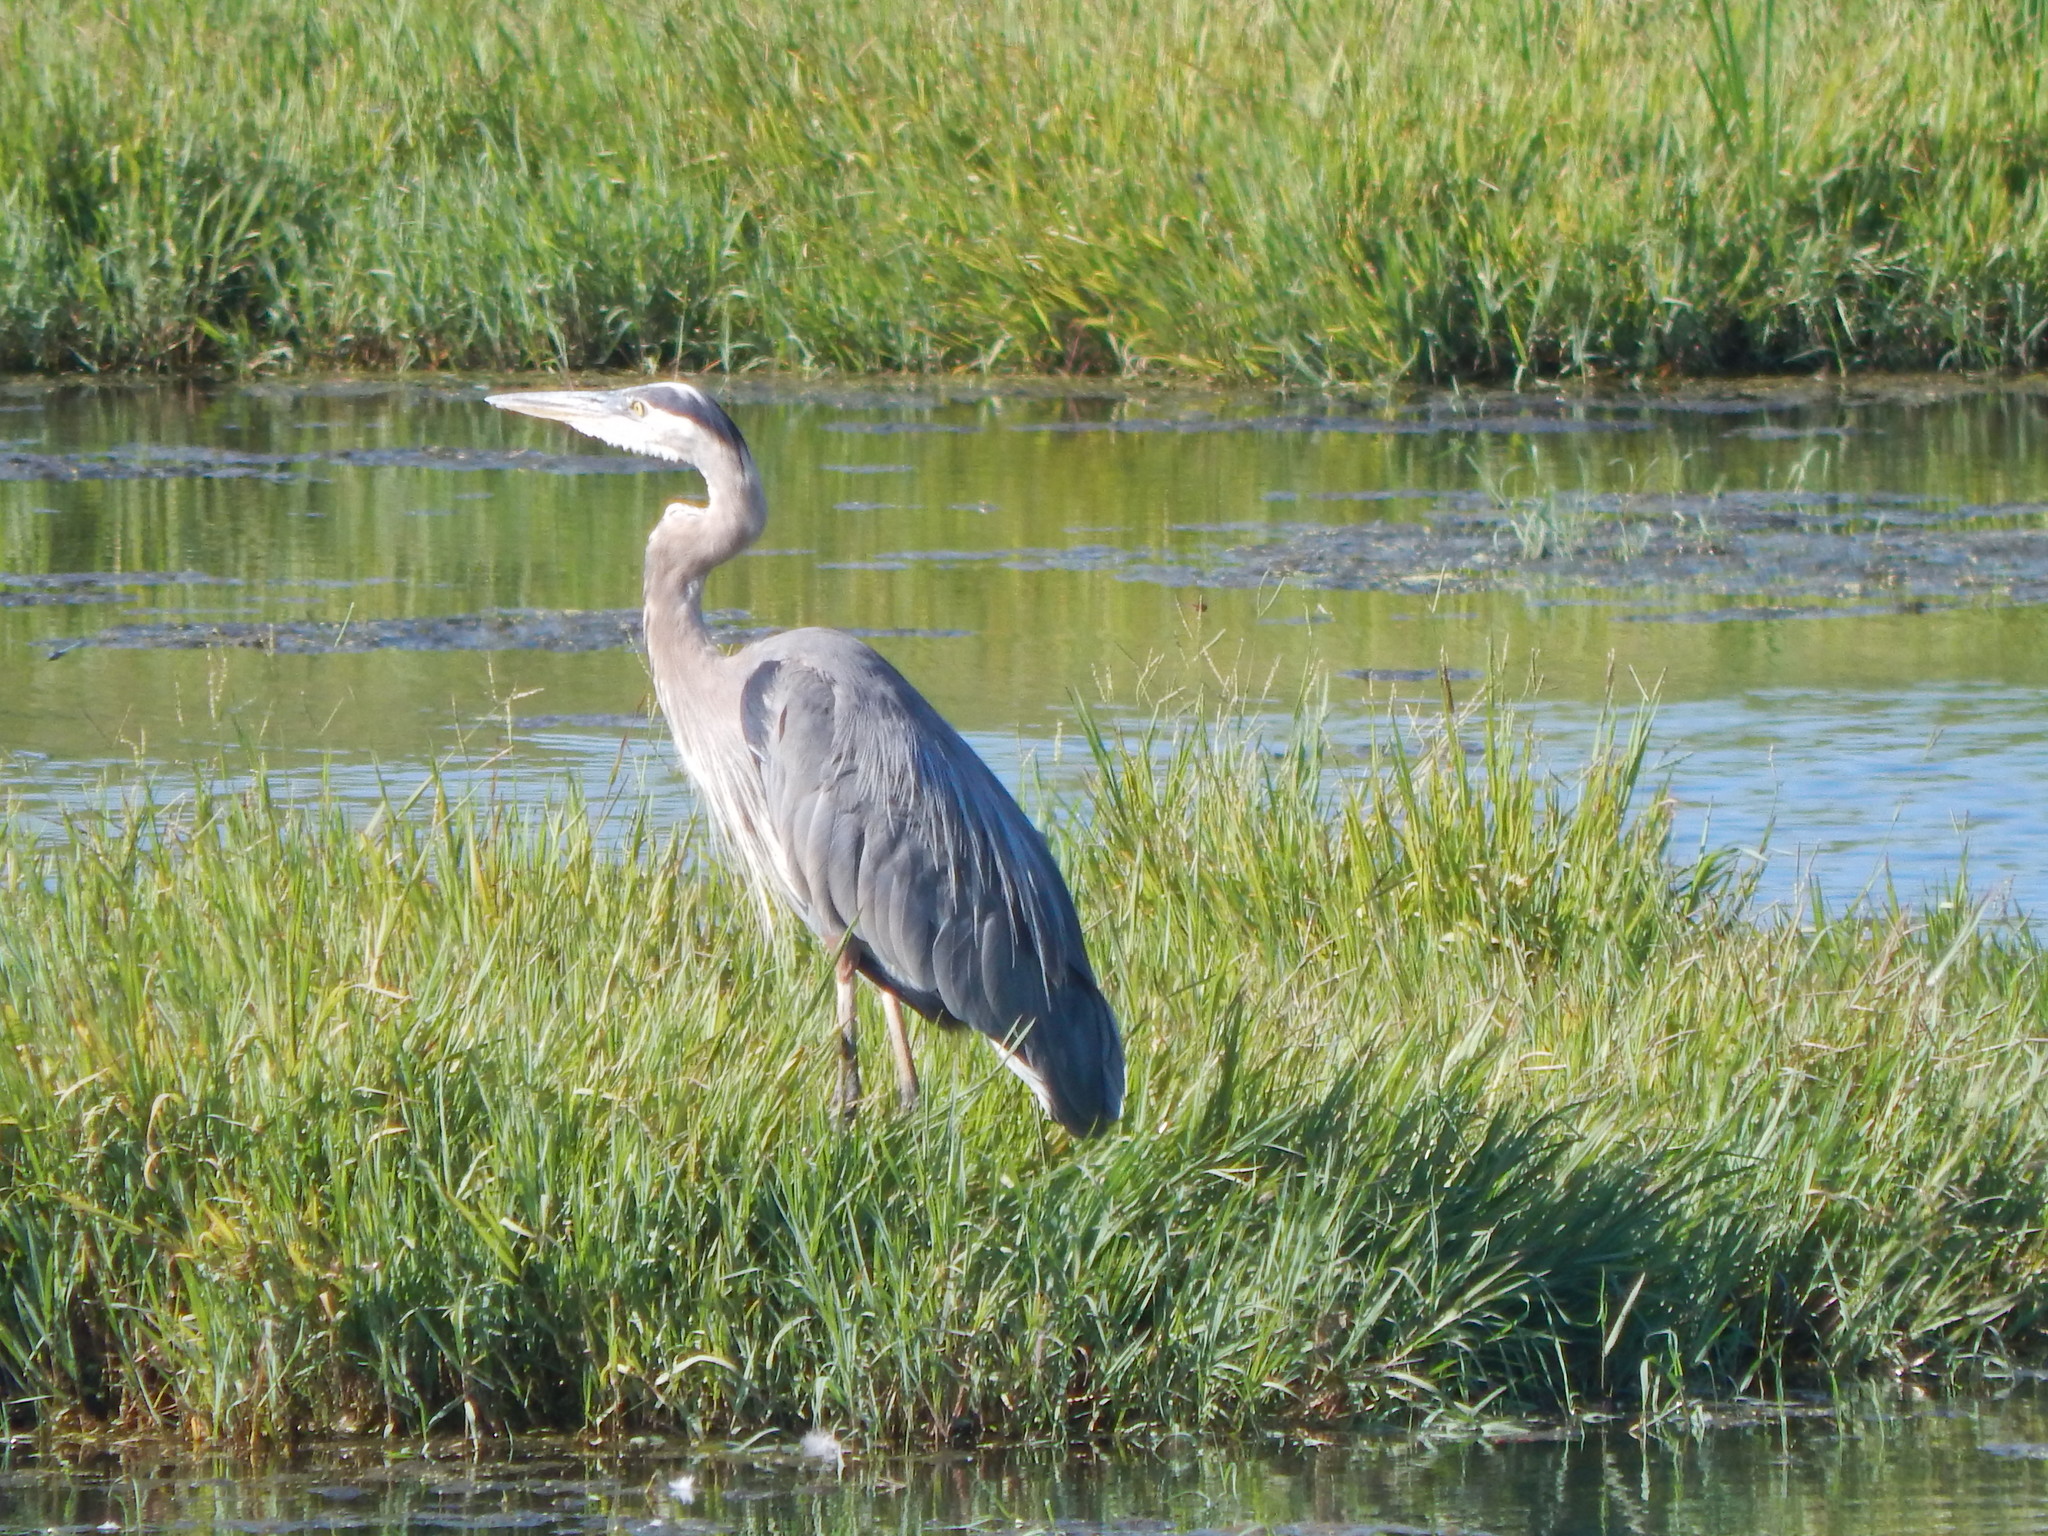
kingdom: Animalia
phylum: Chordata
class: Aves
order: Pelecaniformes
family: Ardeidae
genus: Ardea
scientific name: Ardea herodias
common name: Great blue heron
